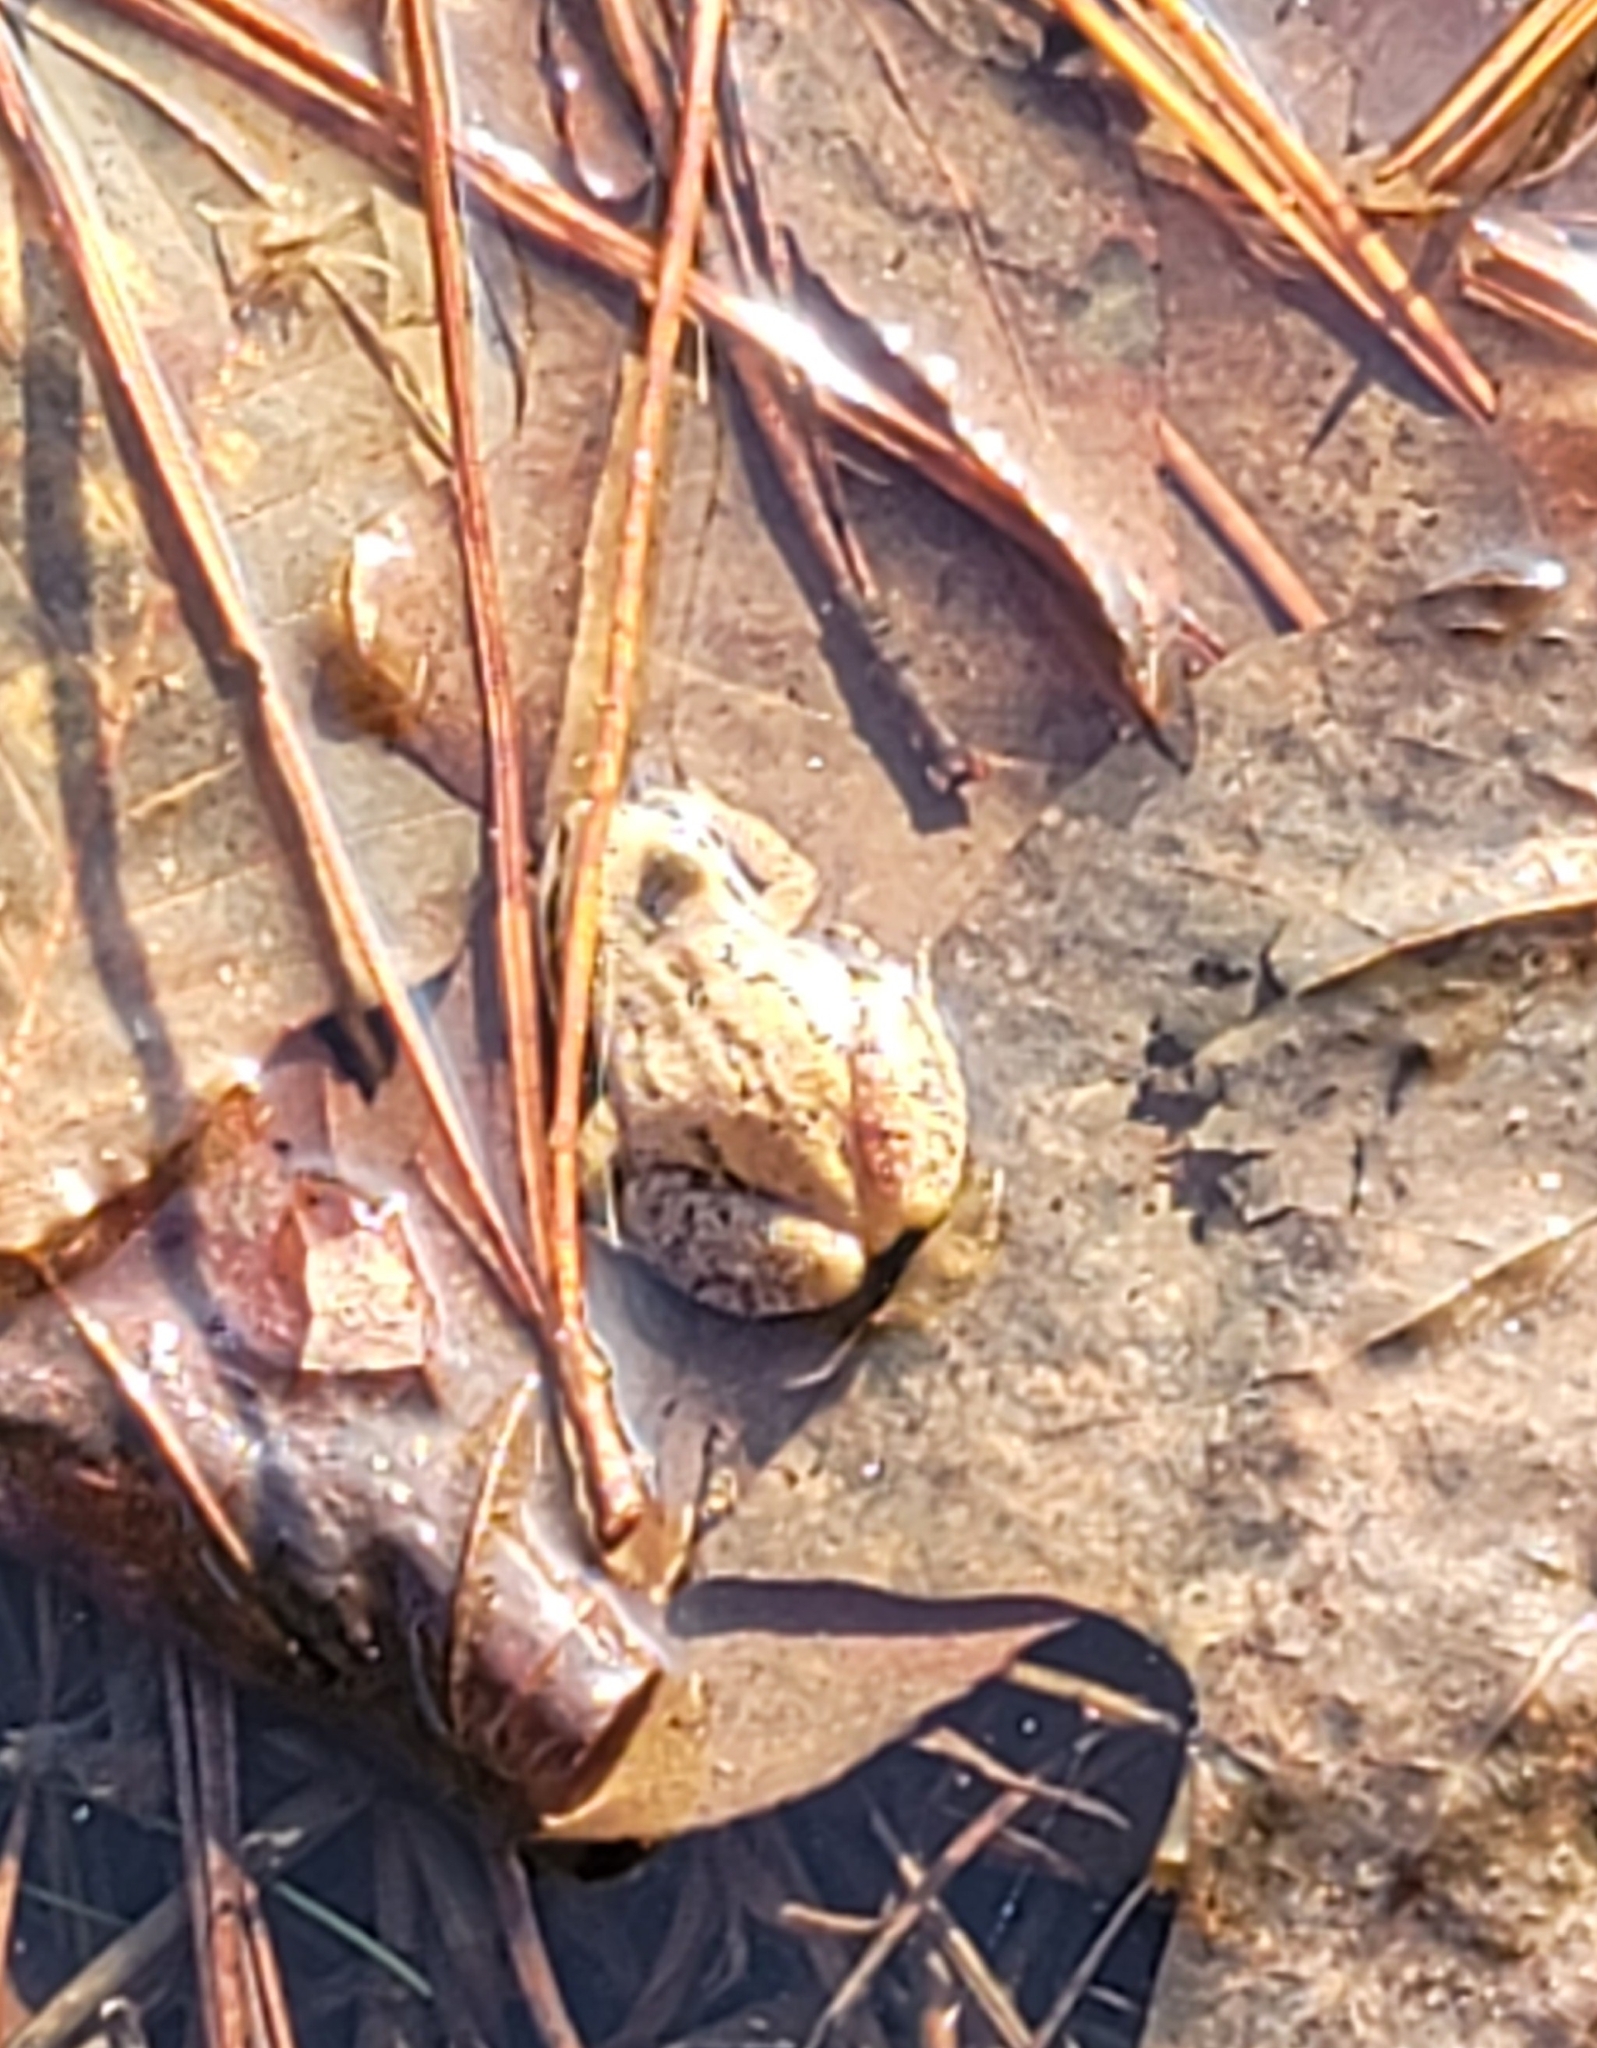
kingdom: Animalia
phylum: Chordata
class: Amphibia
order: Anura
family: Hylidae
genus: Pseudacris
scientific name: Pseudacris feriarum
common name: Upland chorus frog
